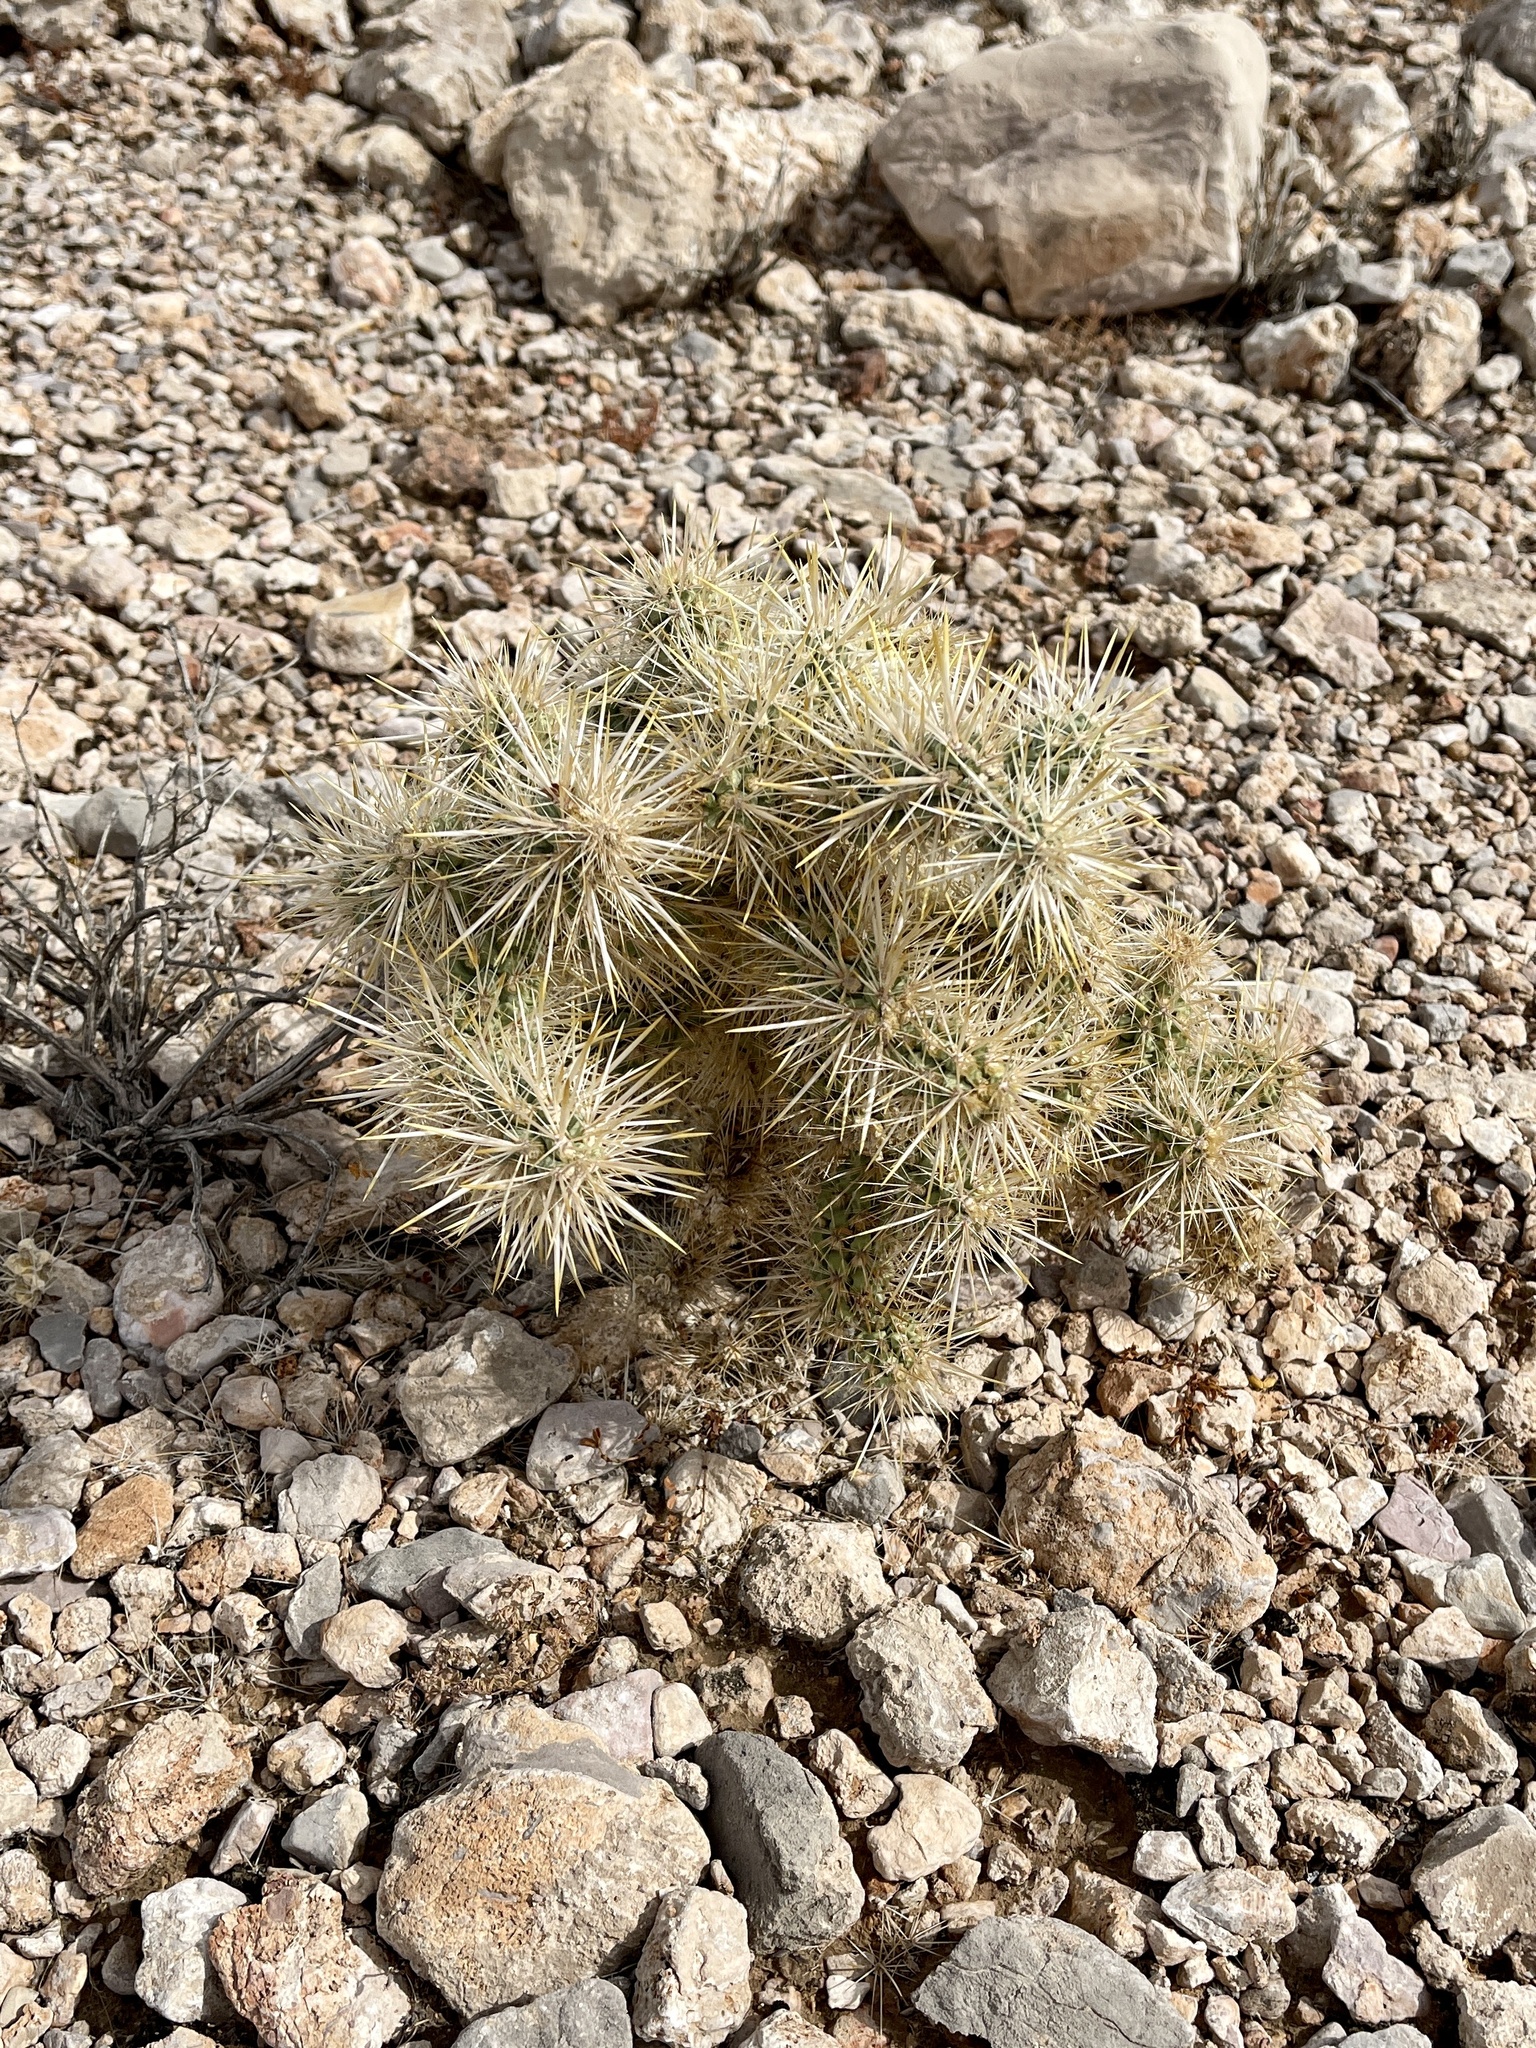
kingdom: Plantae
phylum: Tracheophyta
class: Magnoliopsida
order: Caryophyllales
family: Cactaceae
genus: Cylindropuntia
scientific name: Cylindropuntia echinocarpa
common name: Ground cholla
